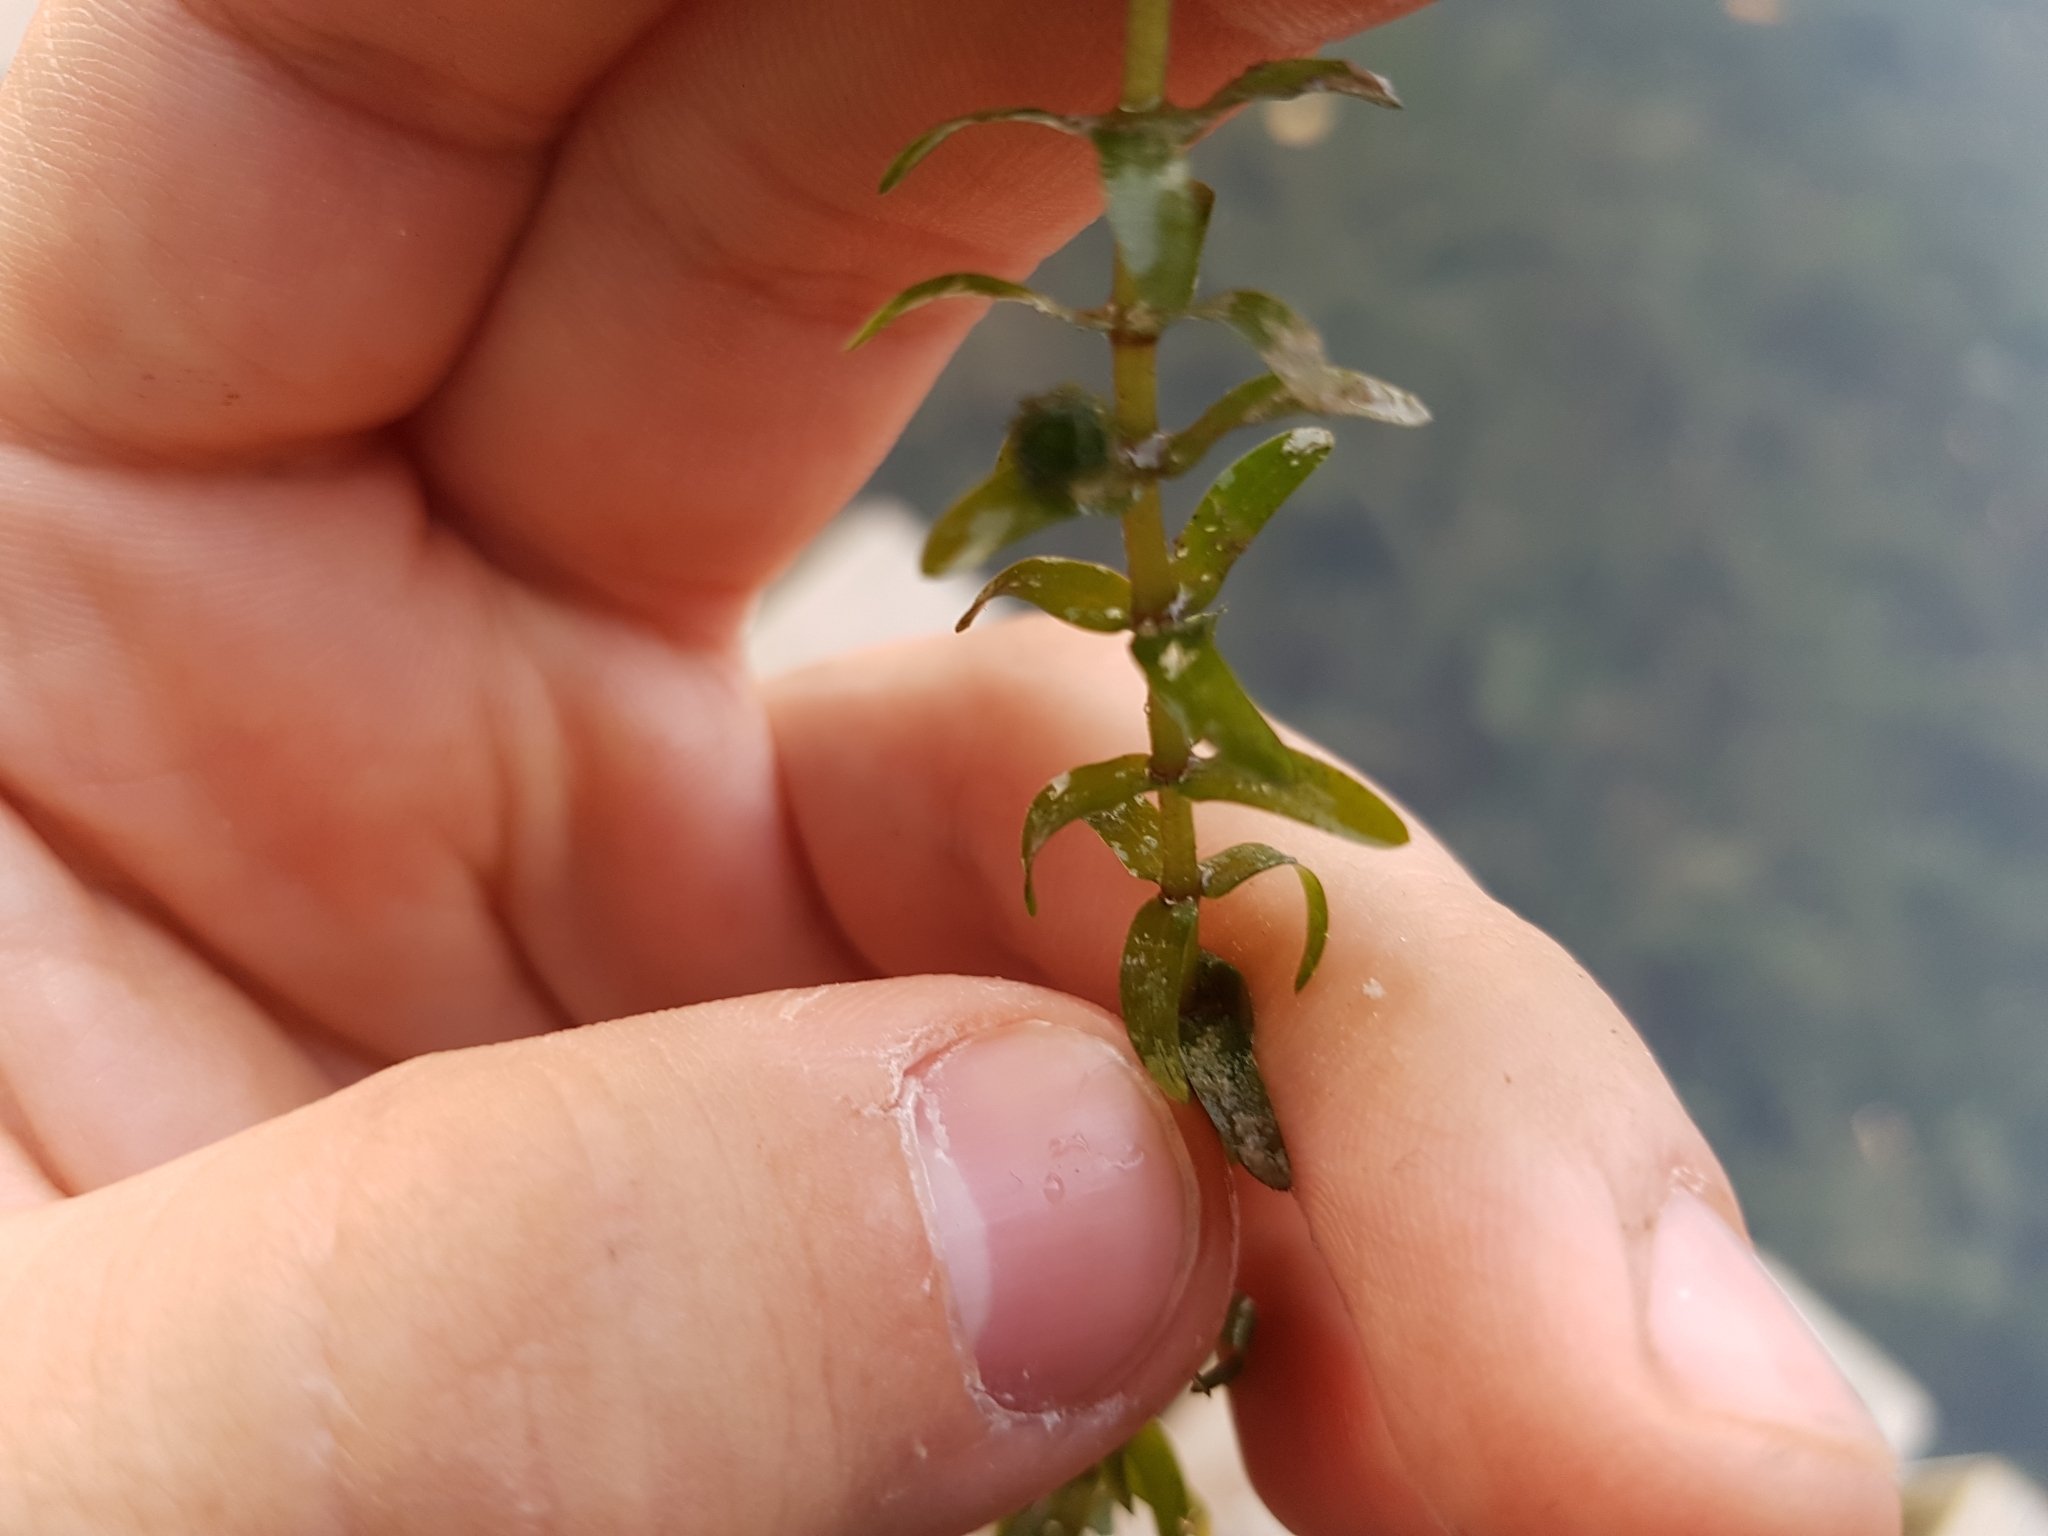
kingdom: Plantae
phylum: Tracheophyta
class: Liliopsida
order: Alismatales
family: Hydrocharitaceae
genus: Elodea
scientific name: Elodea canadensis
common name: Canadian waterweed
